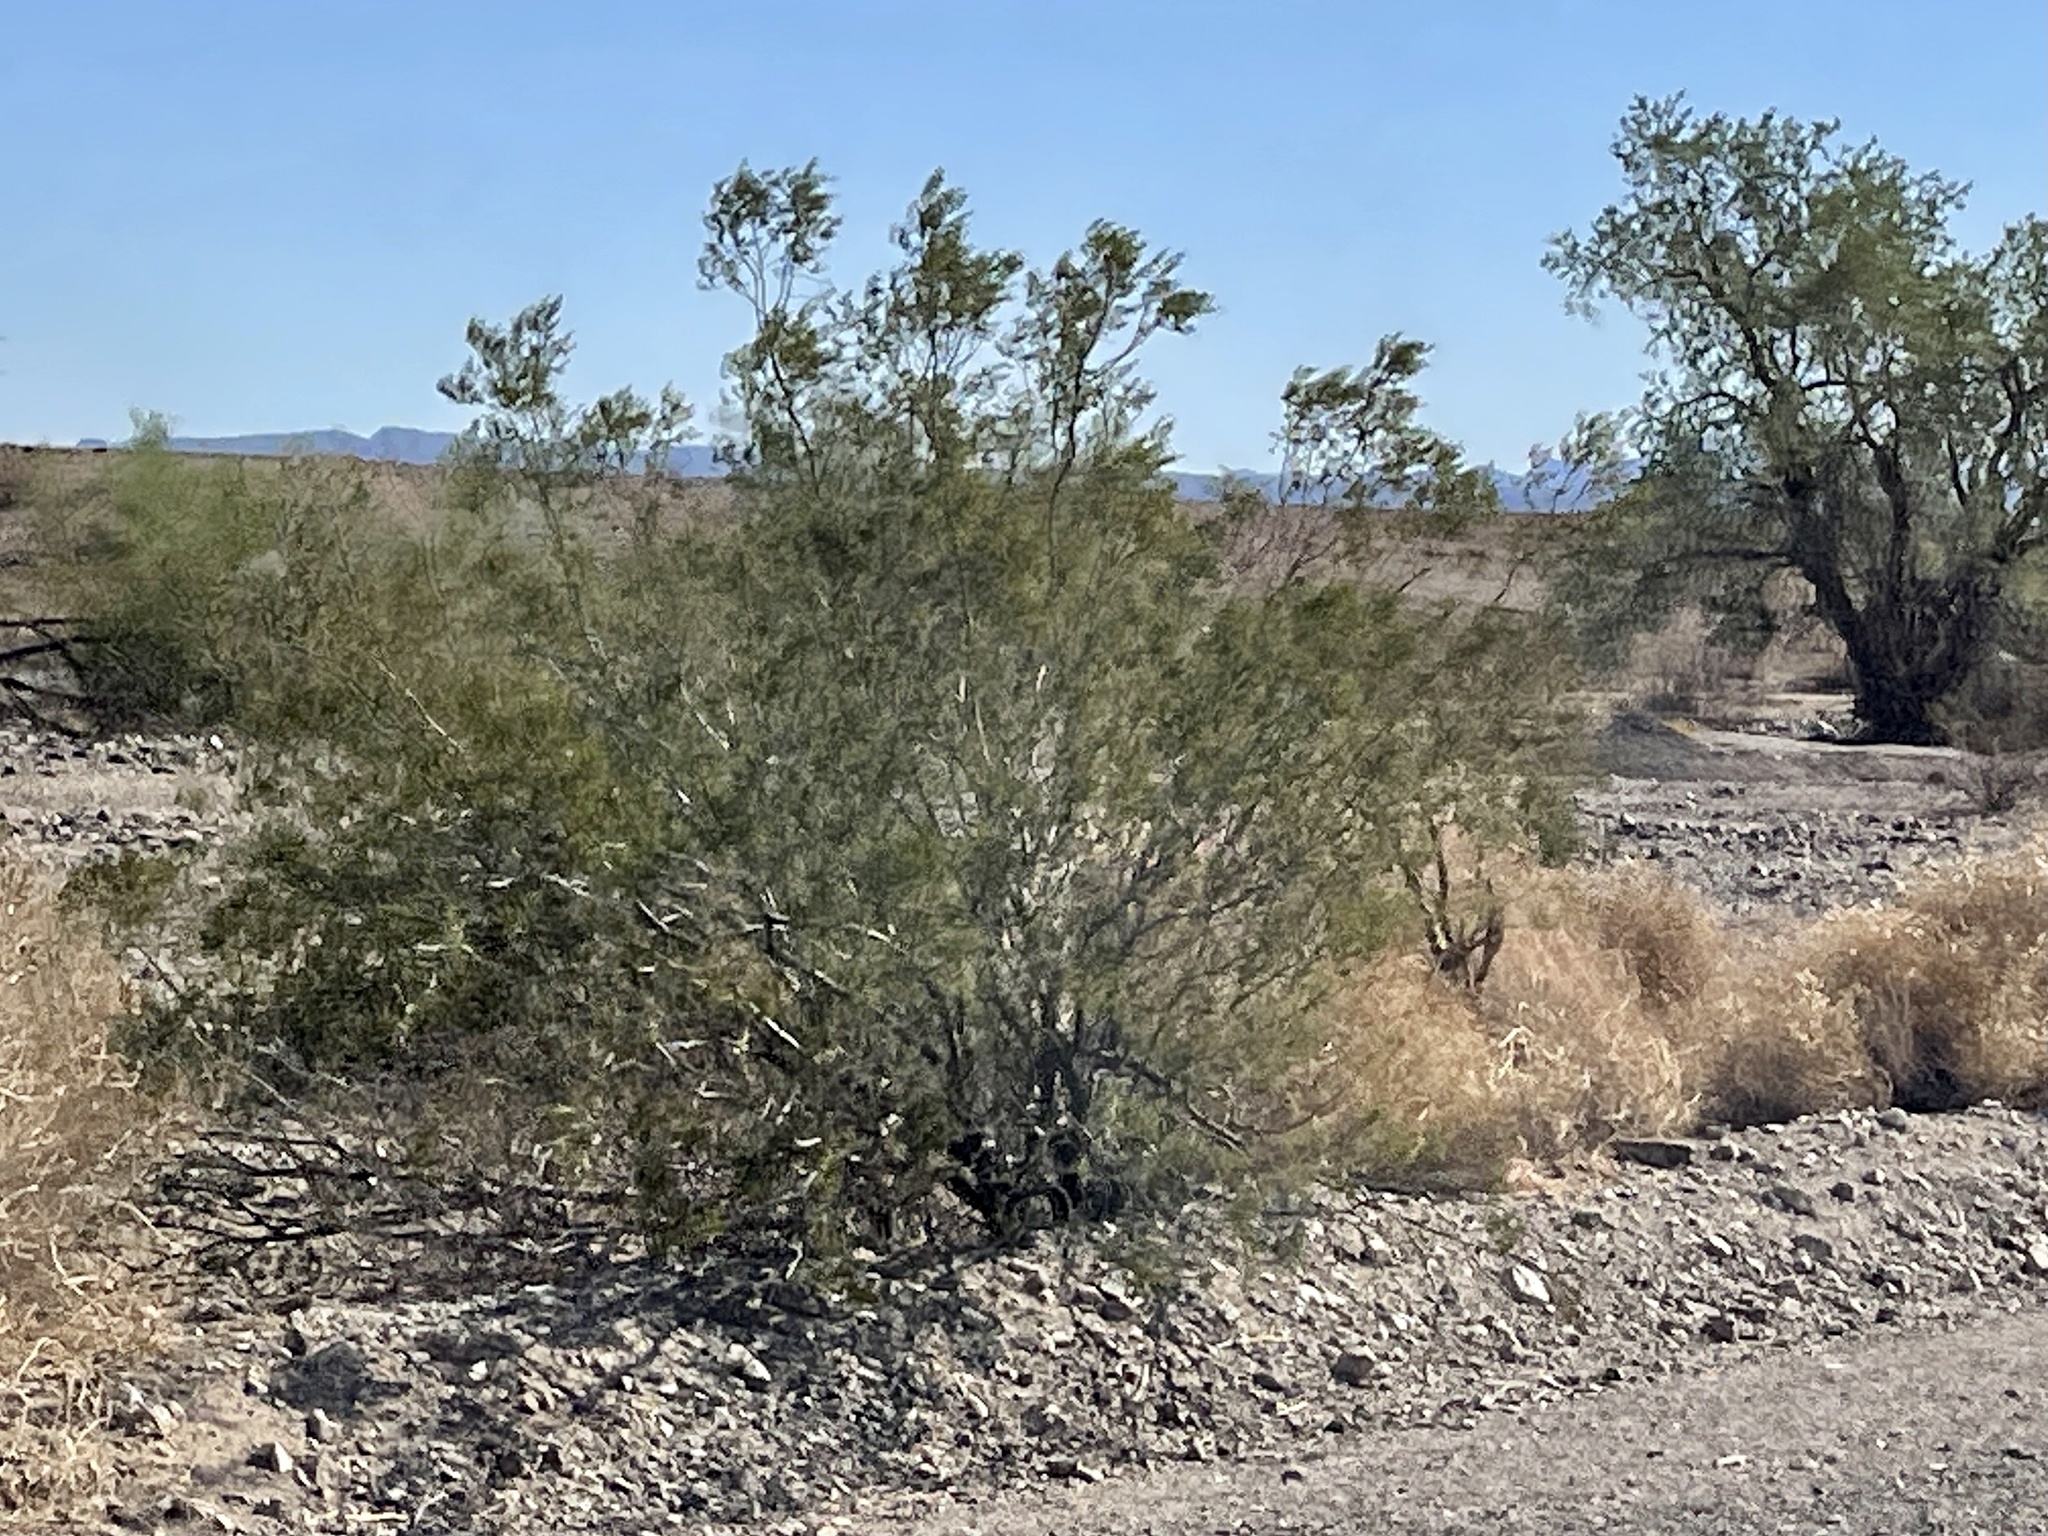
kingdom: Plantae
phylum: Tracheophyta
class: Magnoliopsida
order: Zygophyllales
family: Zygophyllaceae
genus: Larrea
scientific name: Larrea tridentata
